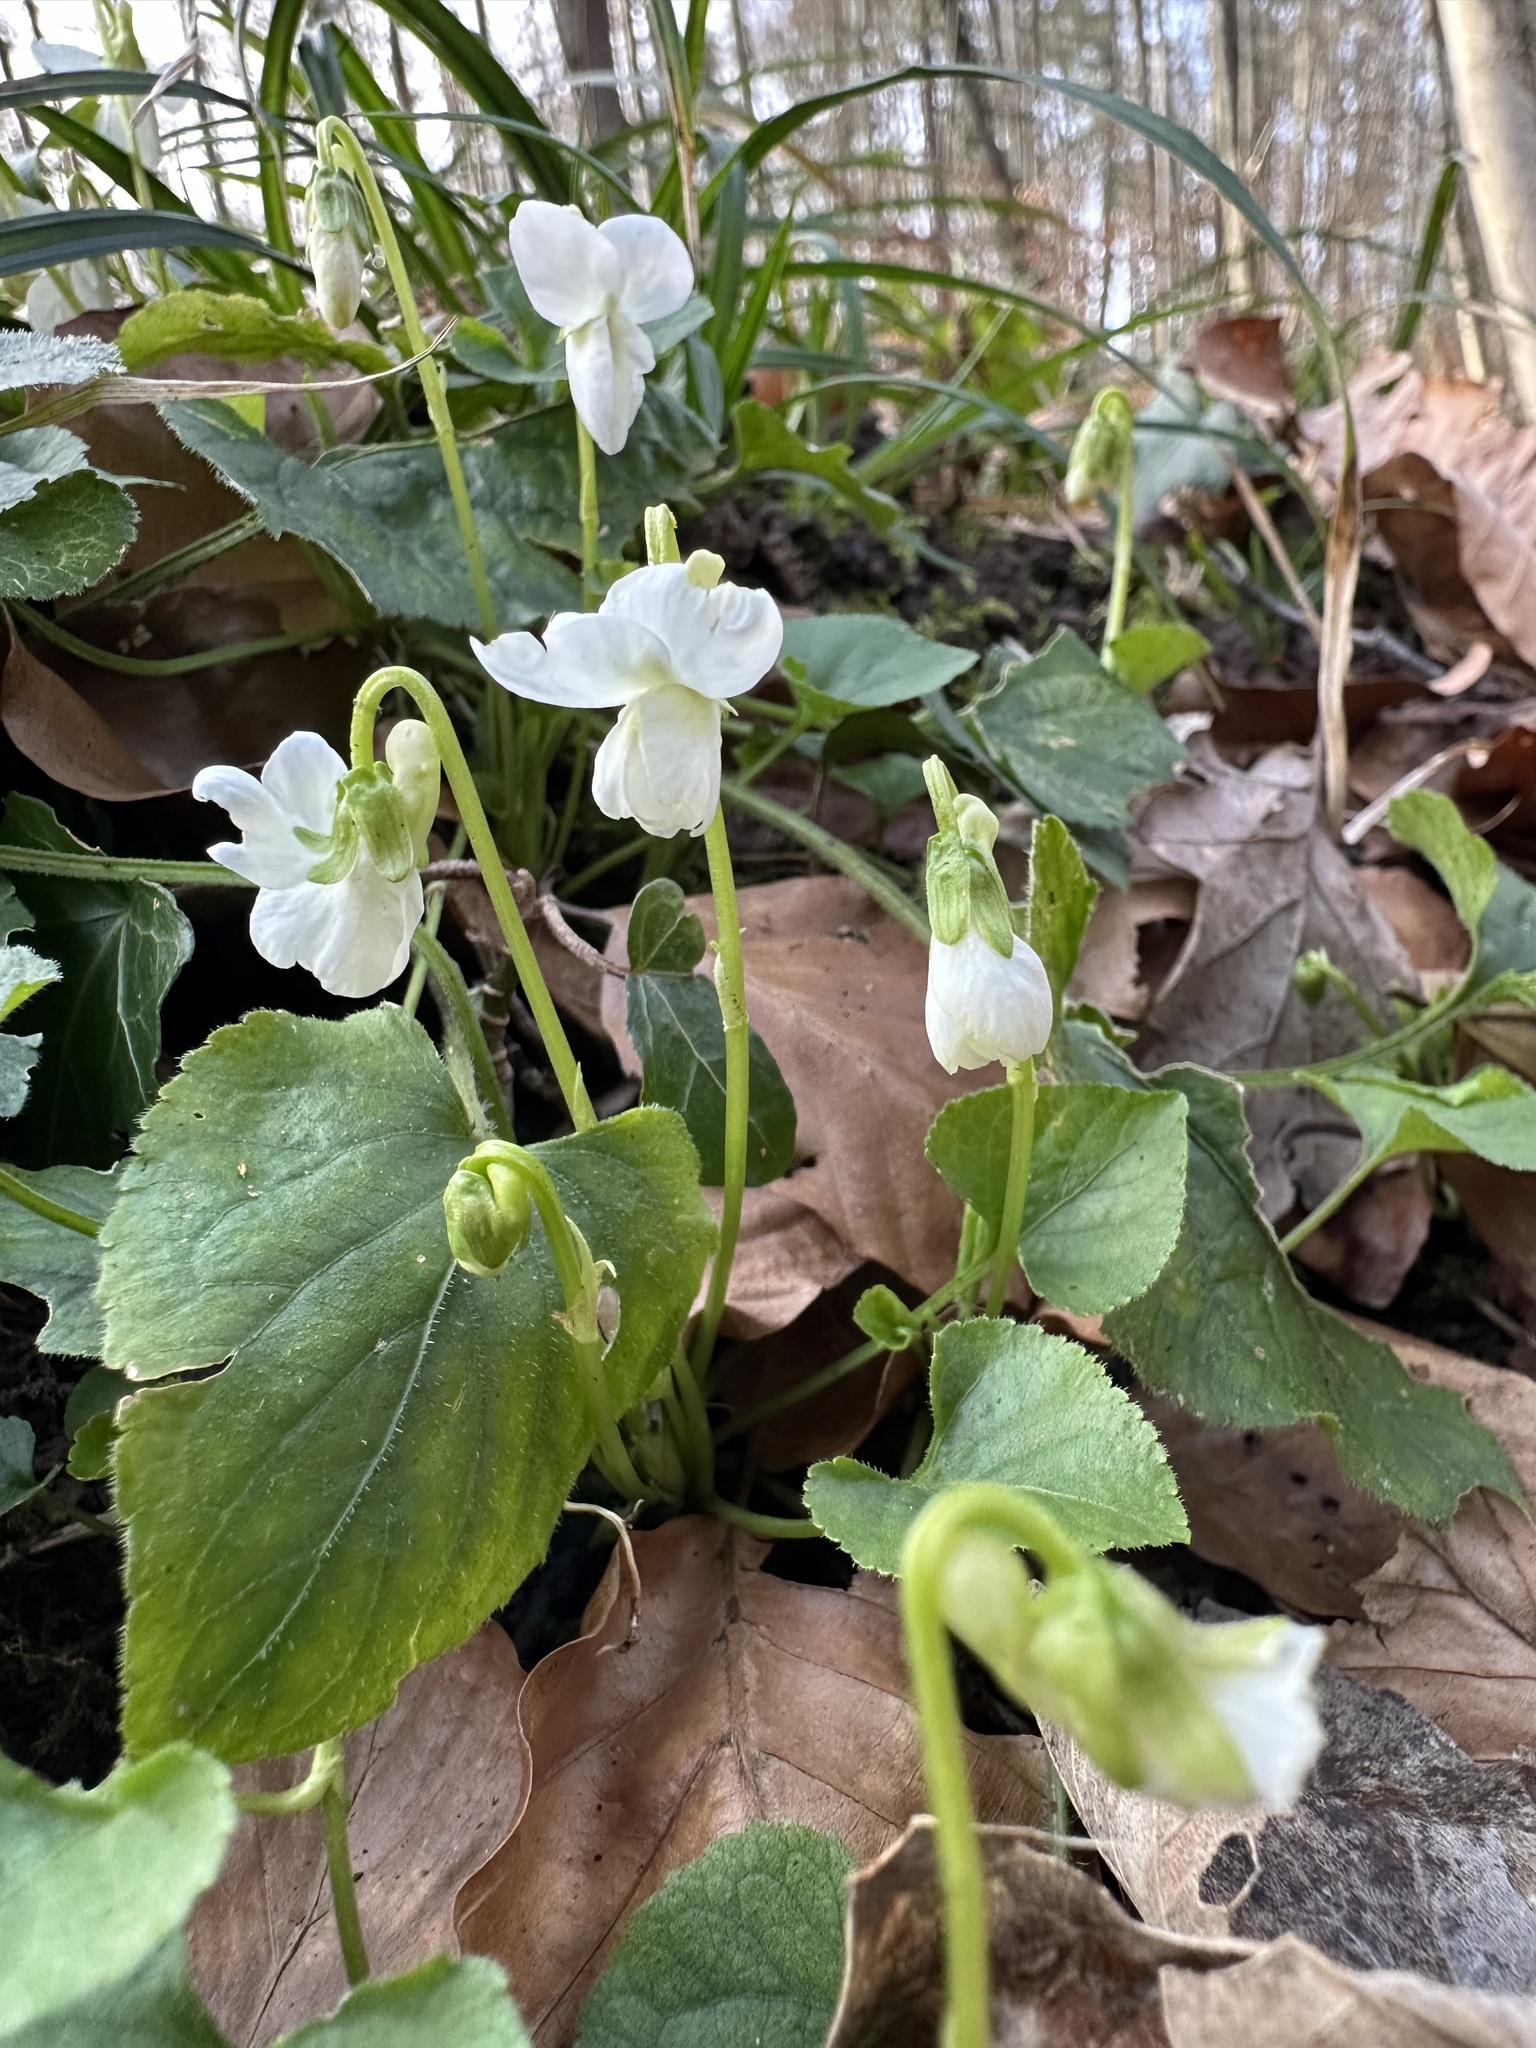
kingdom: Plantae
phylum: Tracheophyta
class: Magnoliopsida
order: Malpighiales
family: Violaceae
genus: Viola
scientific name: Viola alba
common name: White violet
